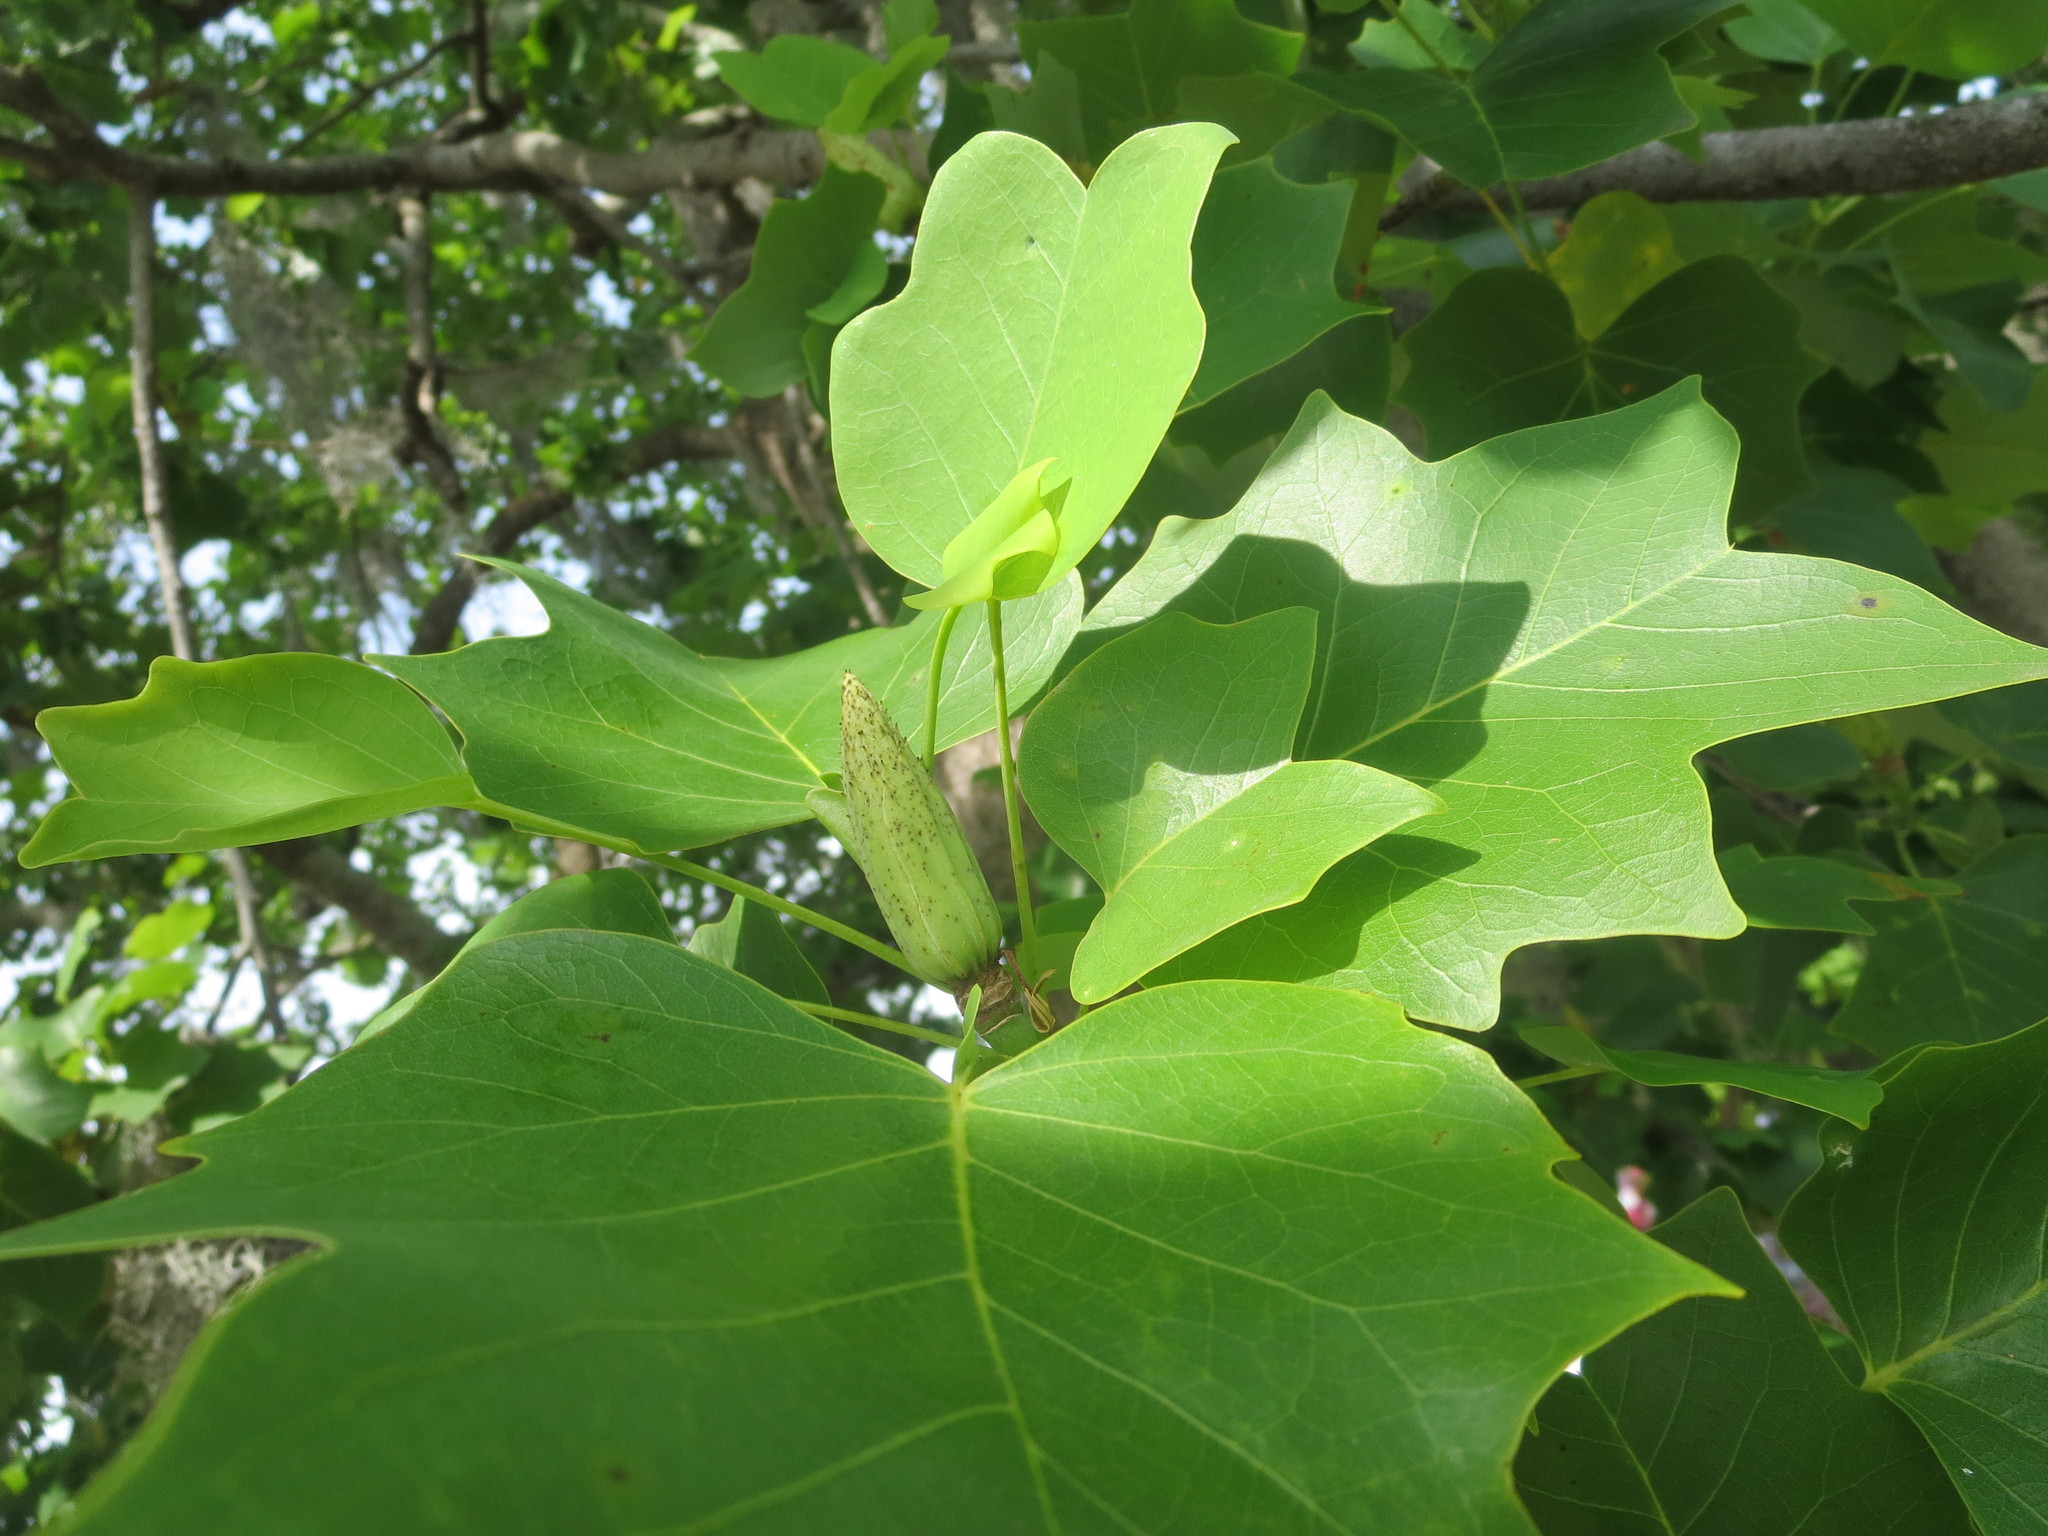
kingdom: Plantae
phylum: Tracheophyta
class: Magnoliopsida
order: Magnoliales
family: Magnoliaceae
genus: Liriodendron
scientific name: Liriodendron tulipifera
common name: Tulip tree
